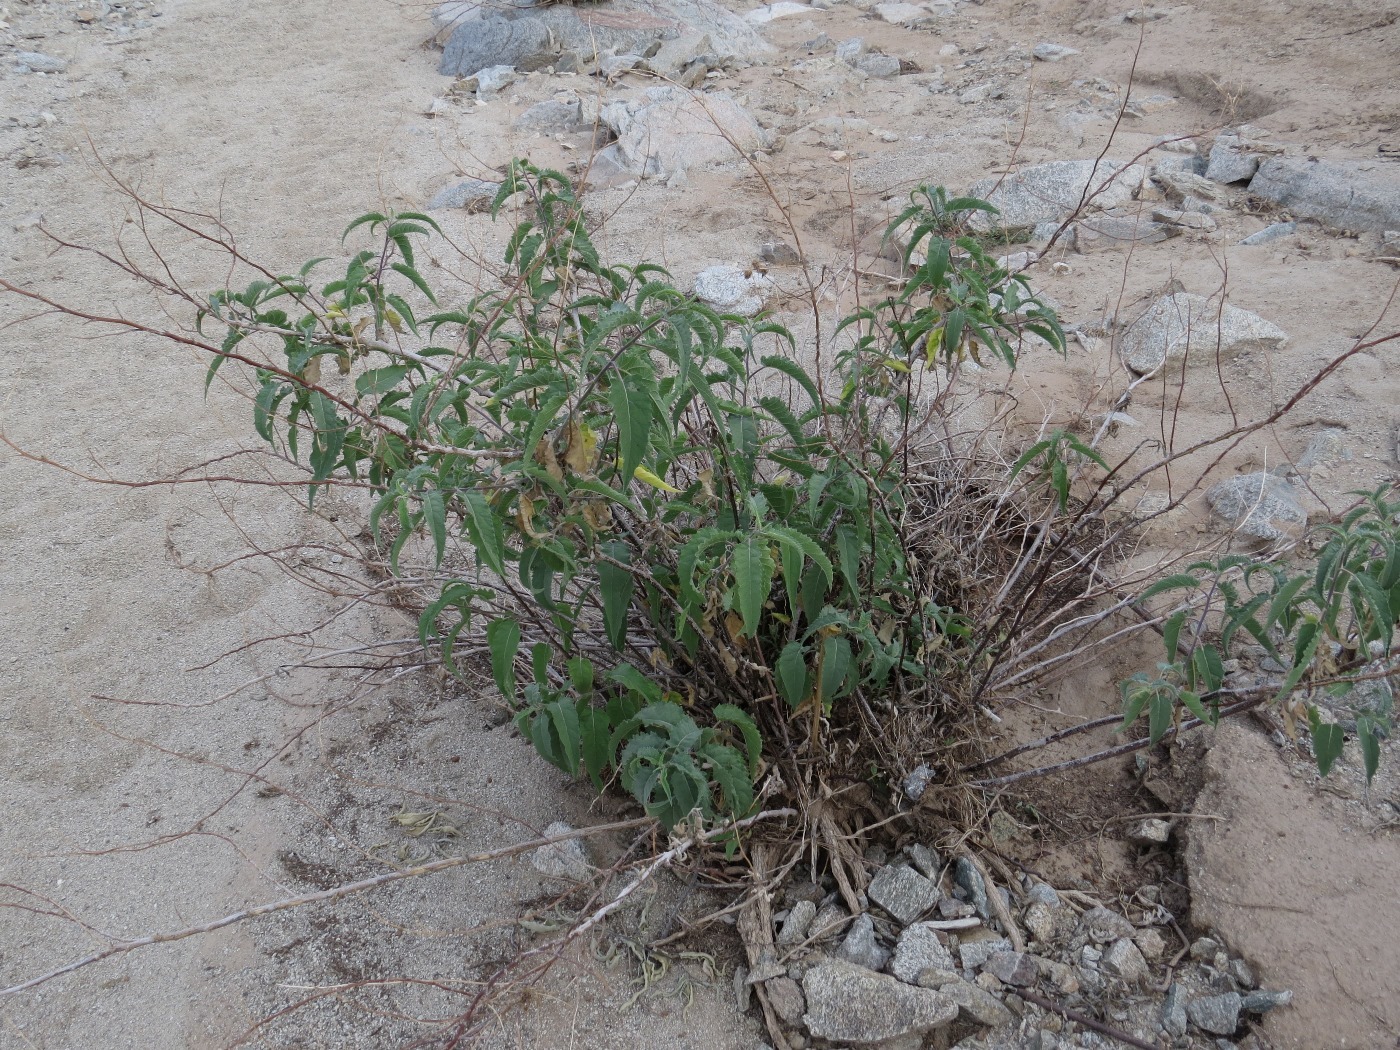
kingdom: Plantae
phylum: Tracheophyta
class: Magnoliopsida
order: Asterales
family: Asteraceae
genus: Ambrosia
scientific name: Ambrosia ambrosioides
